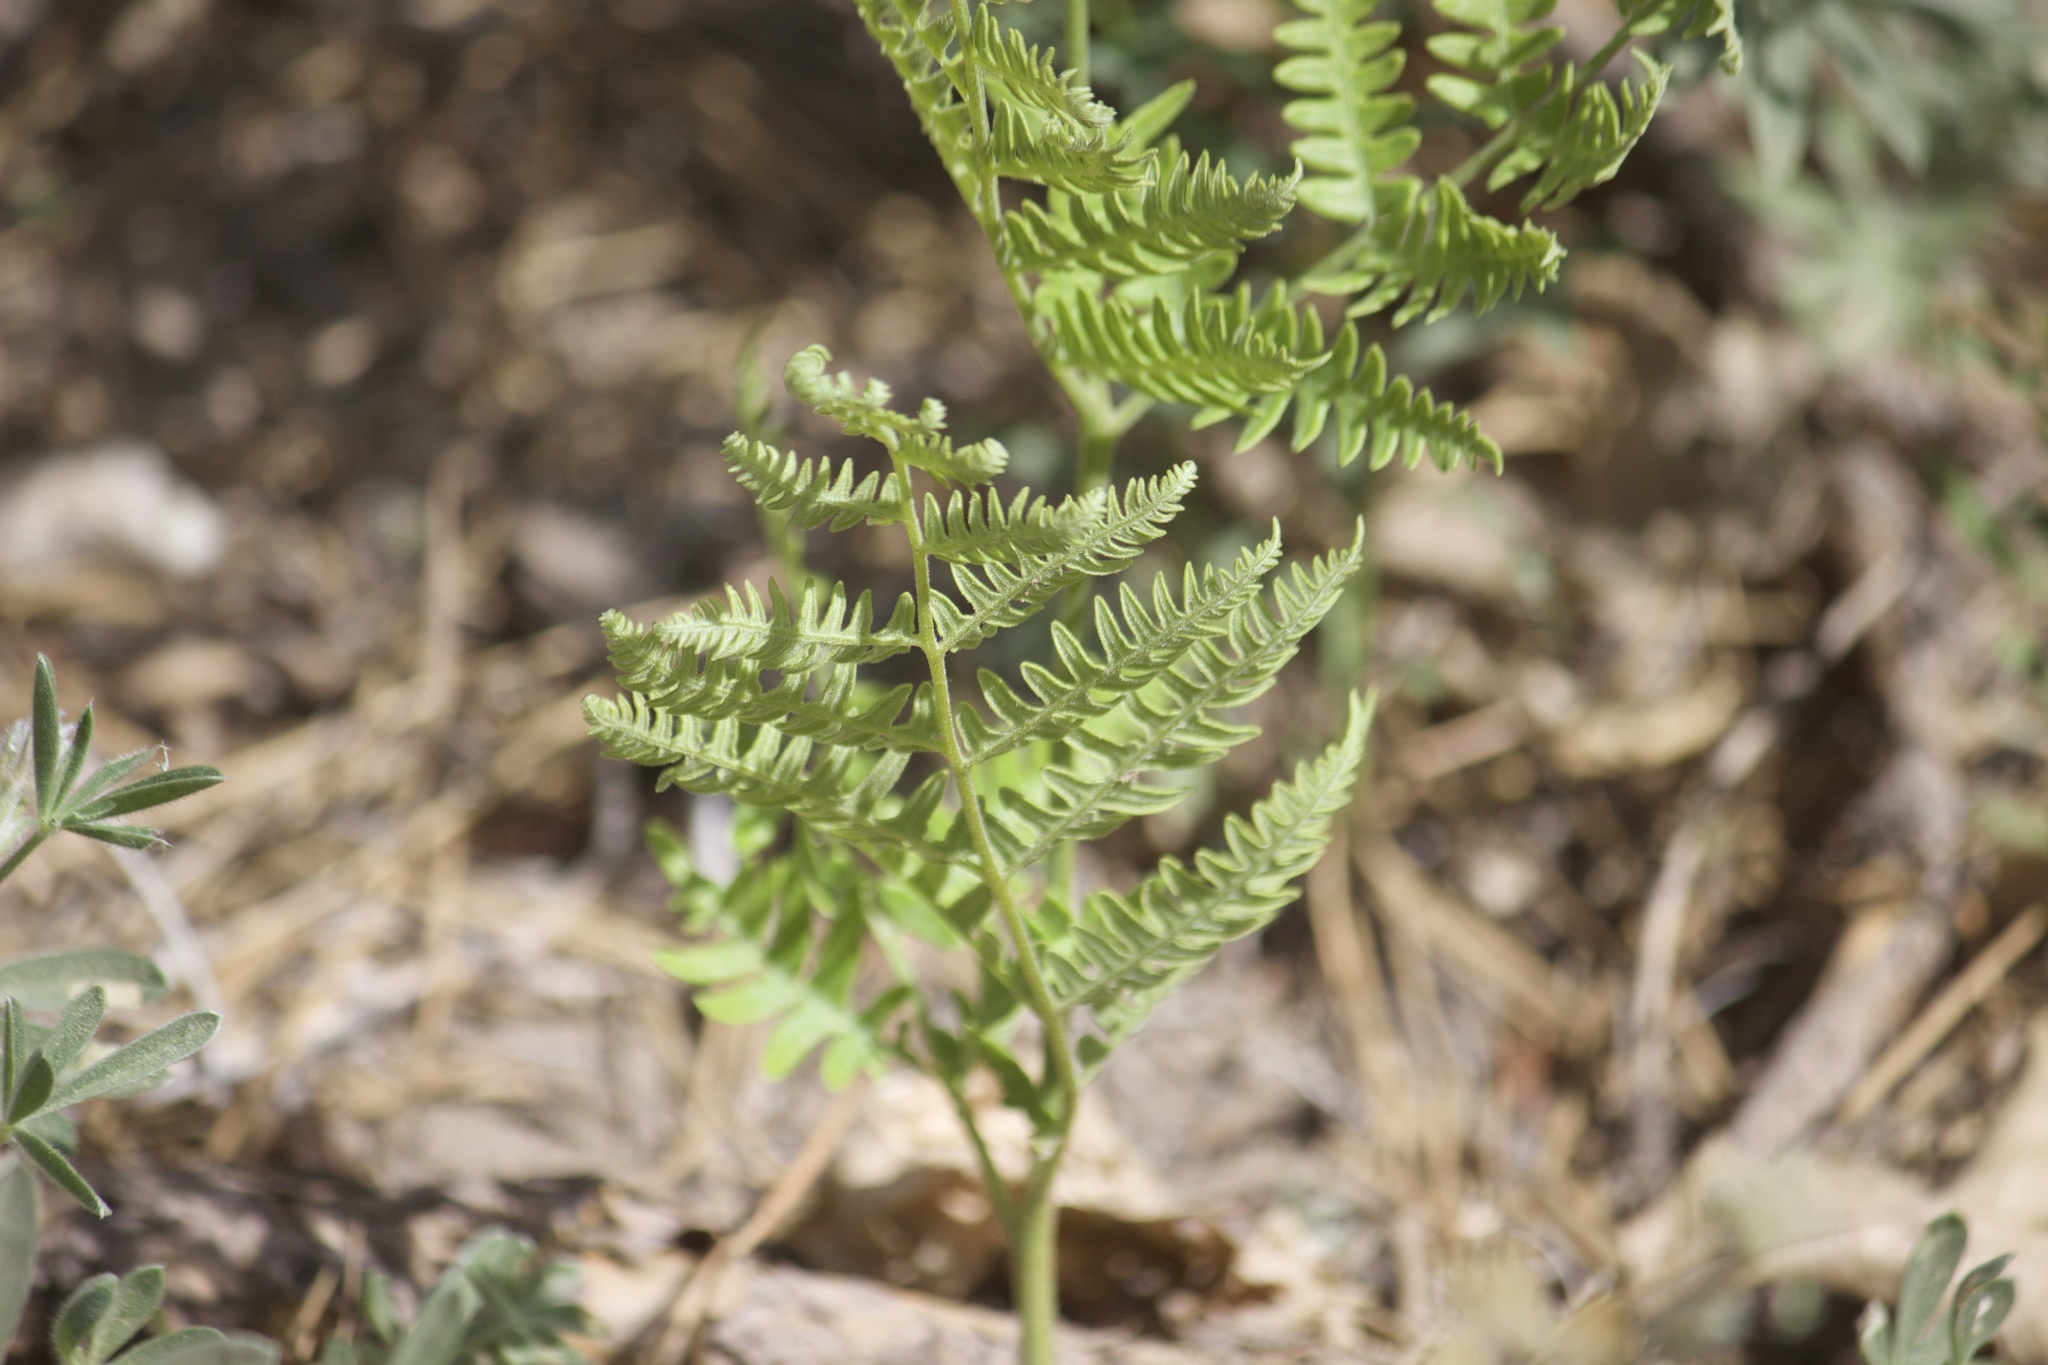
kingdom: Plantae
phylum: Tracheophyta
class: Polypodiopsida
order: Polypodiales
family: Dennstaedtiaceae
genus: Pteridium
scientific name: Pteridium aquilinum
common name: Bracken
